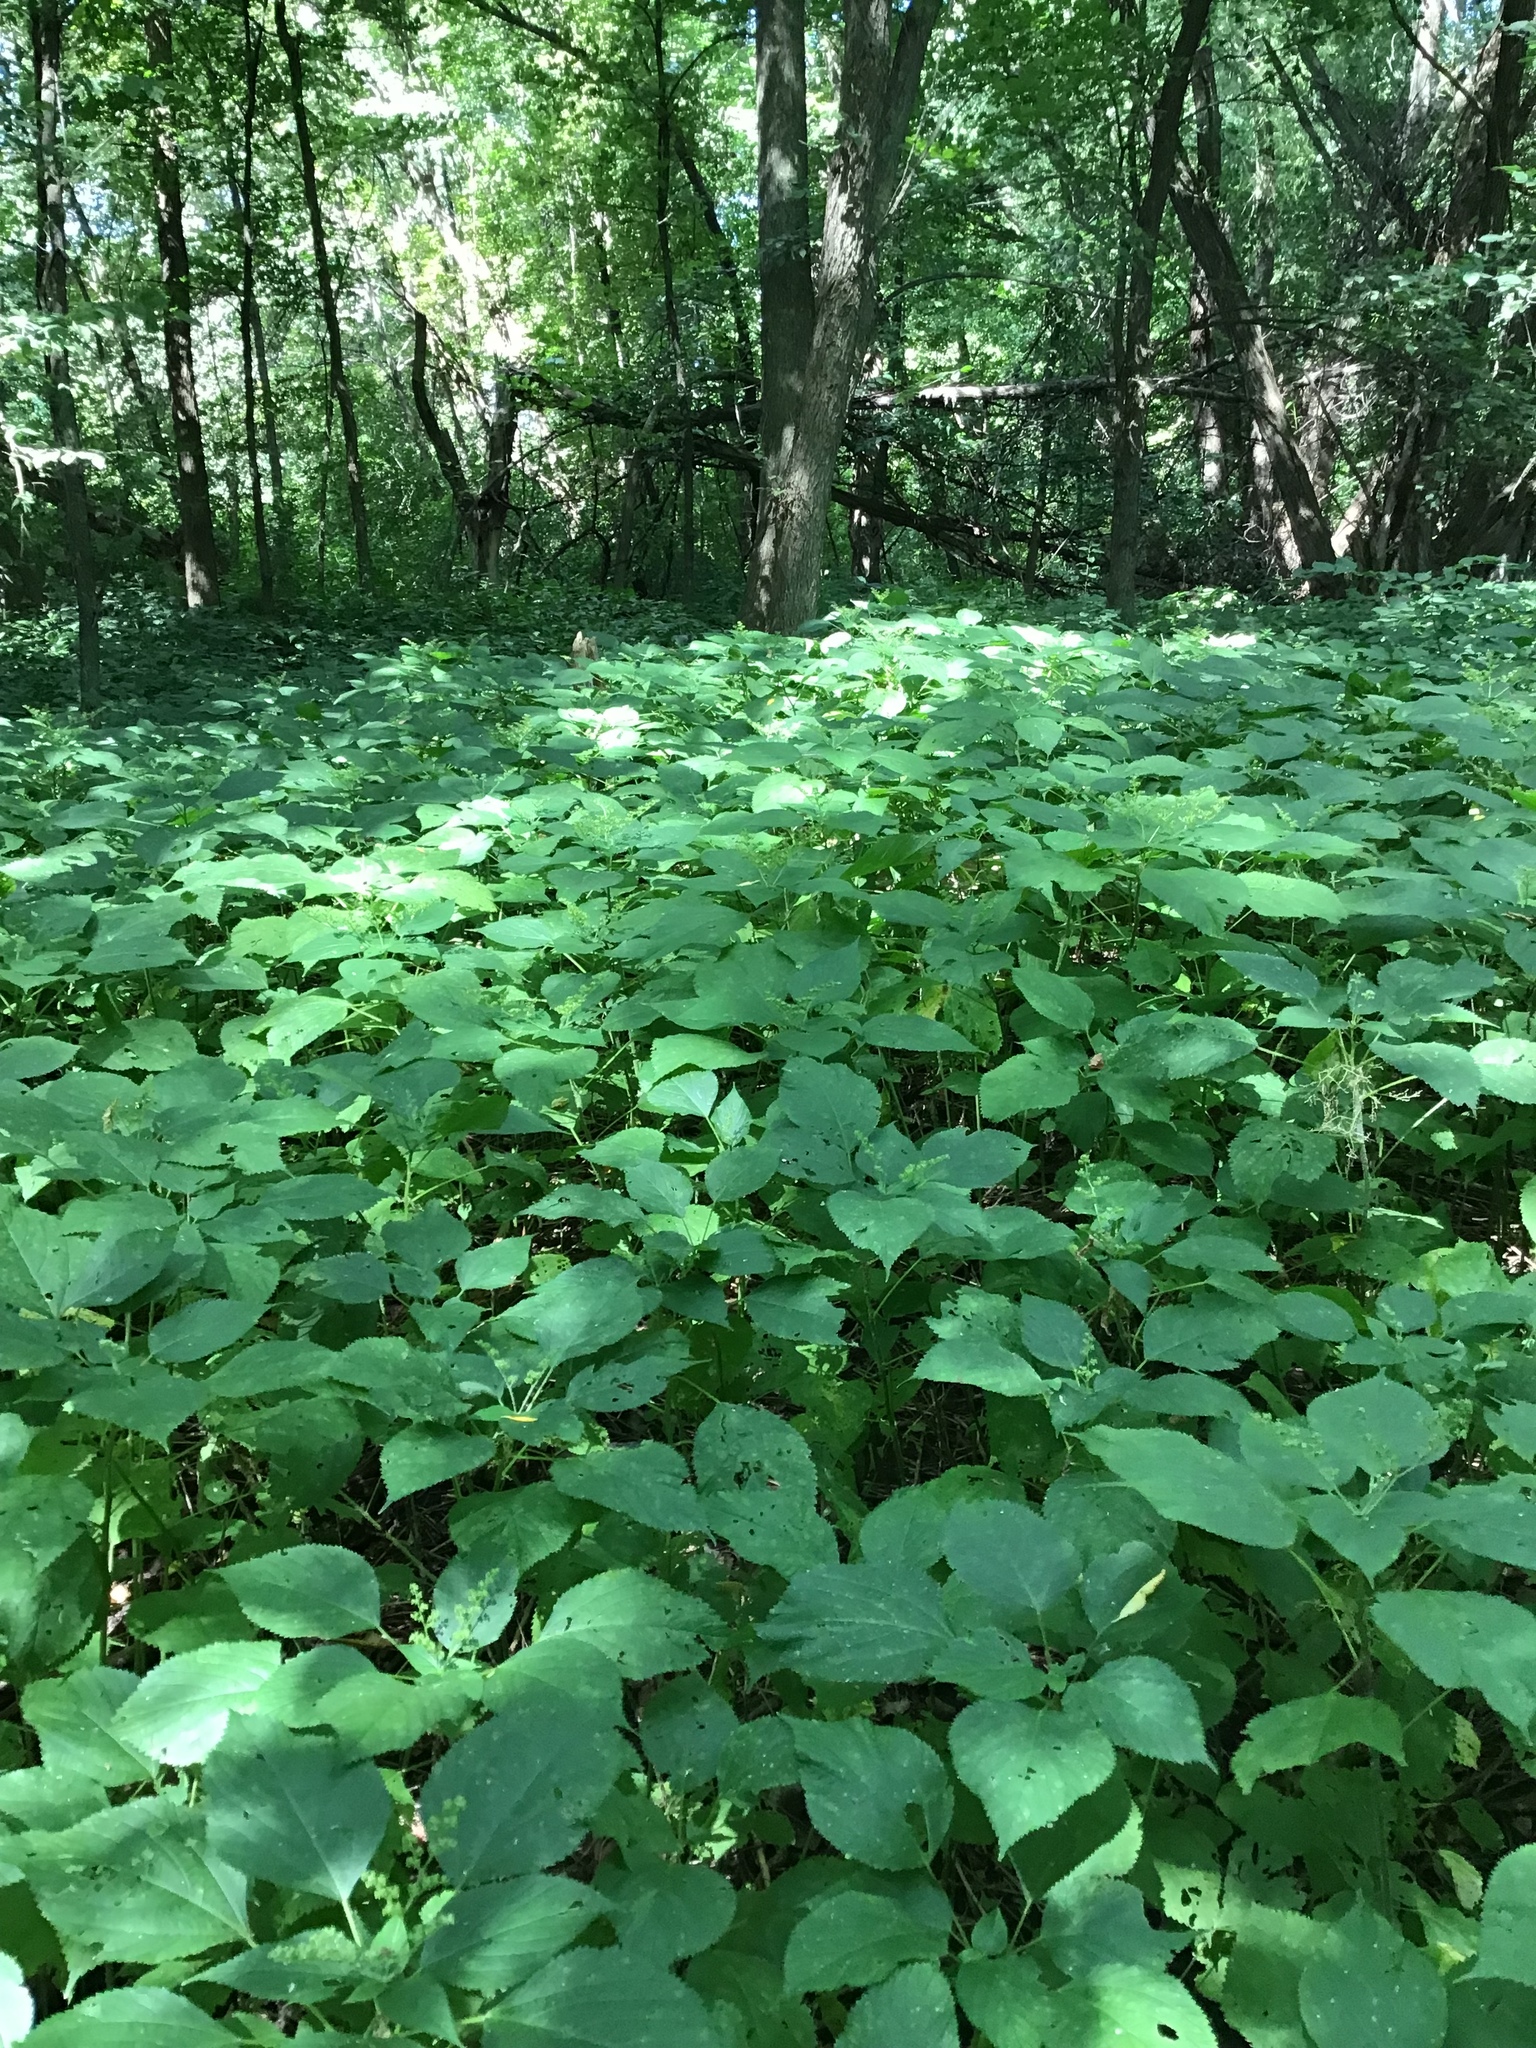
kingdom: Plantae
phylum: Tracheophyta
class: Magnoliopsida
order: Rosales
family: Urticaceae
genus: Laportea
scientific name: Laportea canadensis
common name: Canada nettle
